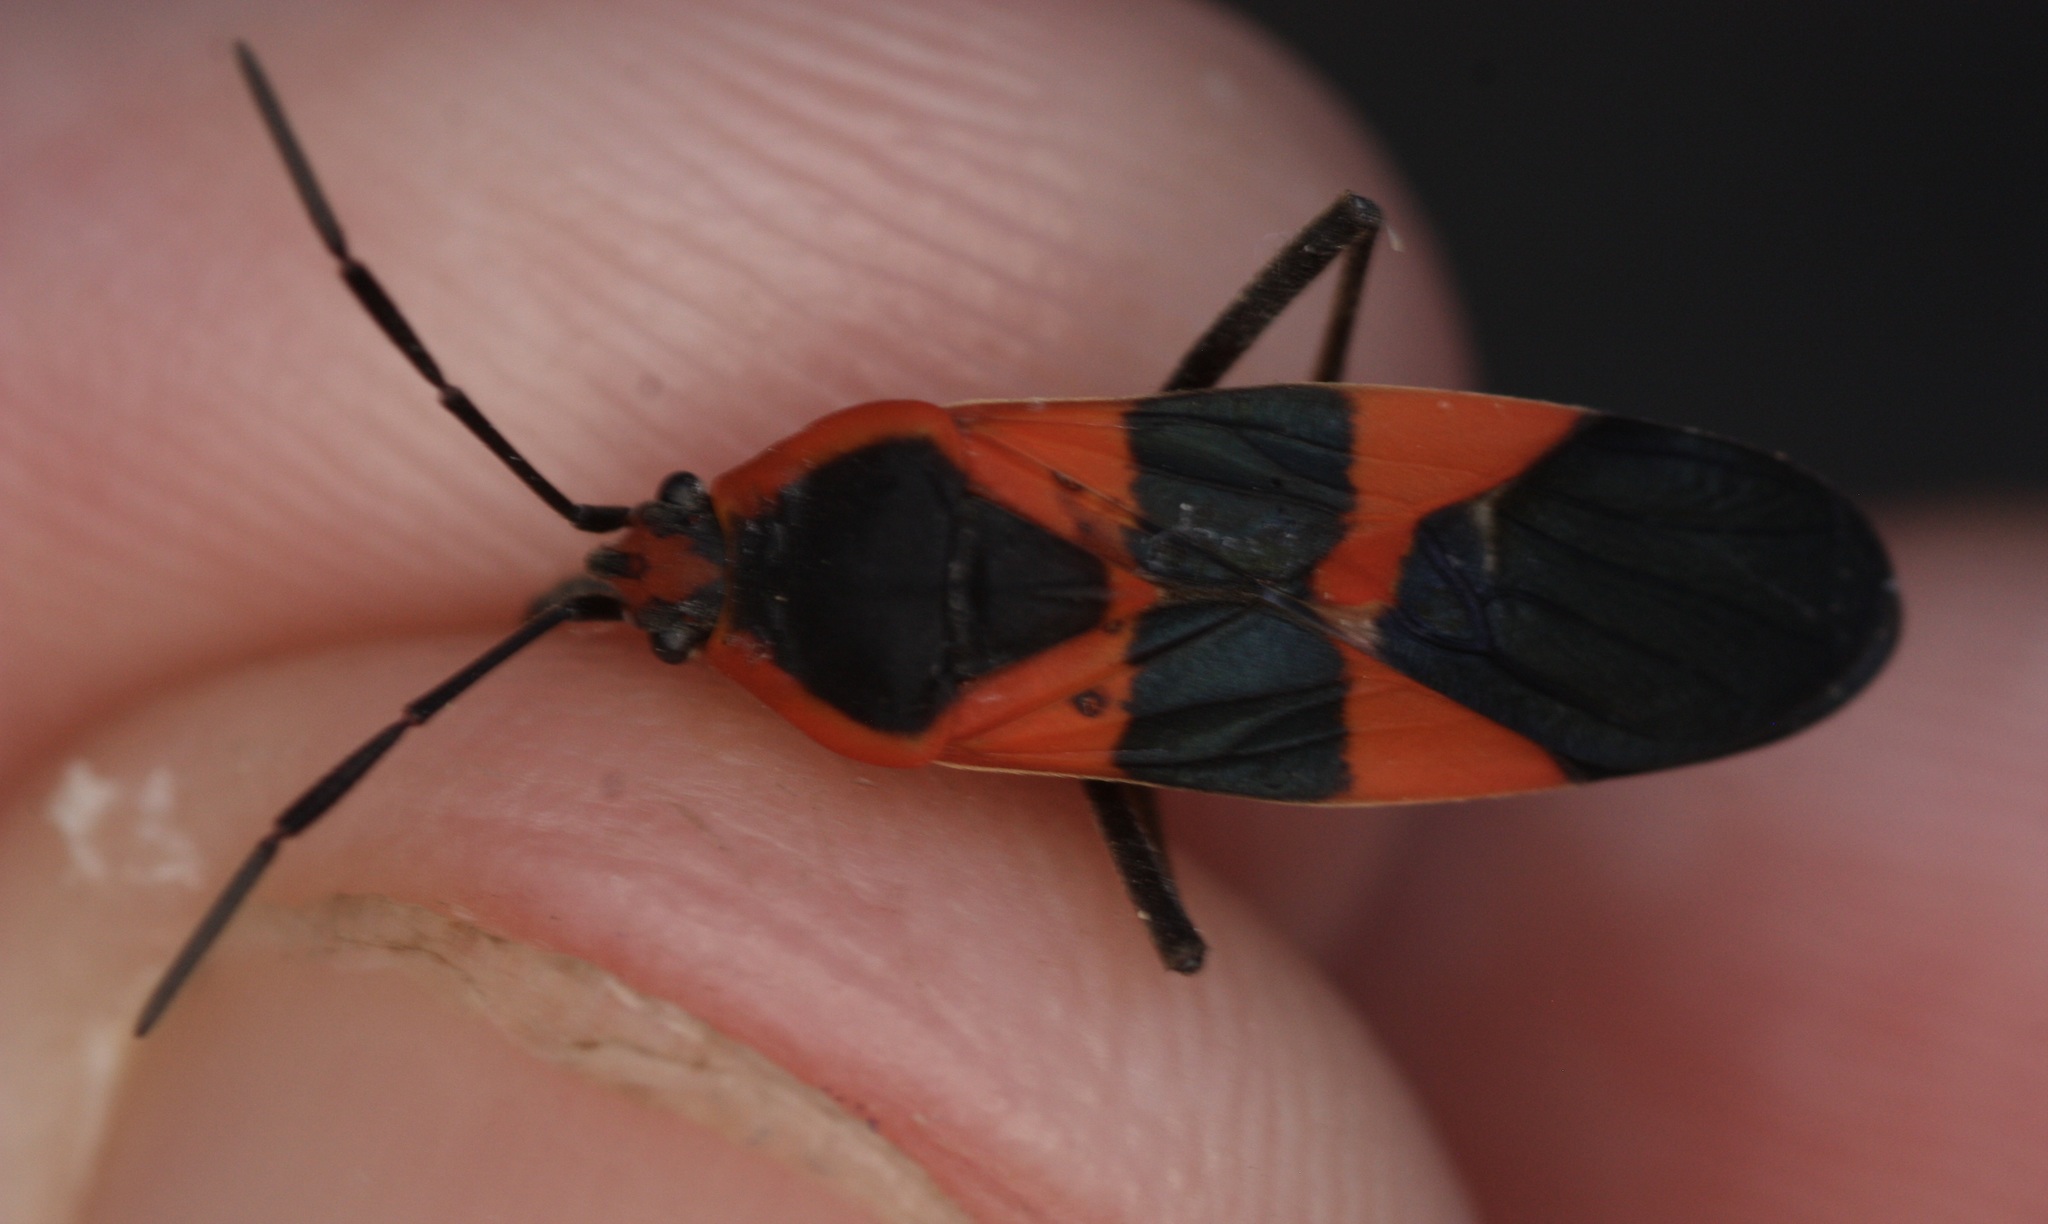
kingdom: Animalia
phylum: Arthropoda
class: Insecta
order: Hemiptera
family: Lygaeidae
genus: Oncopeltus
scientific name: Oncopeltus fasciatus
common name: Large milkweed bug
